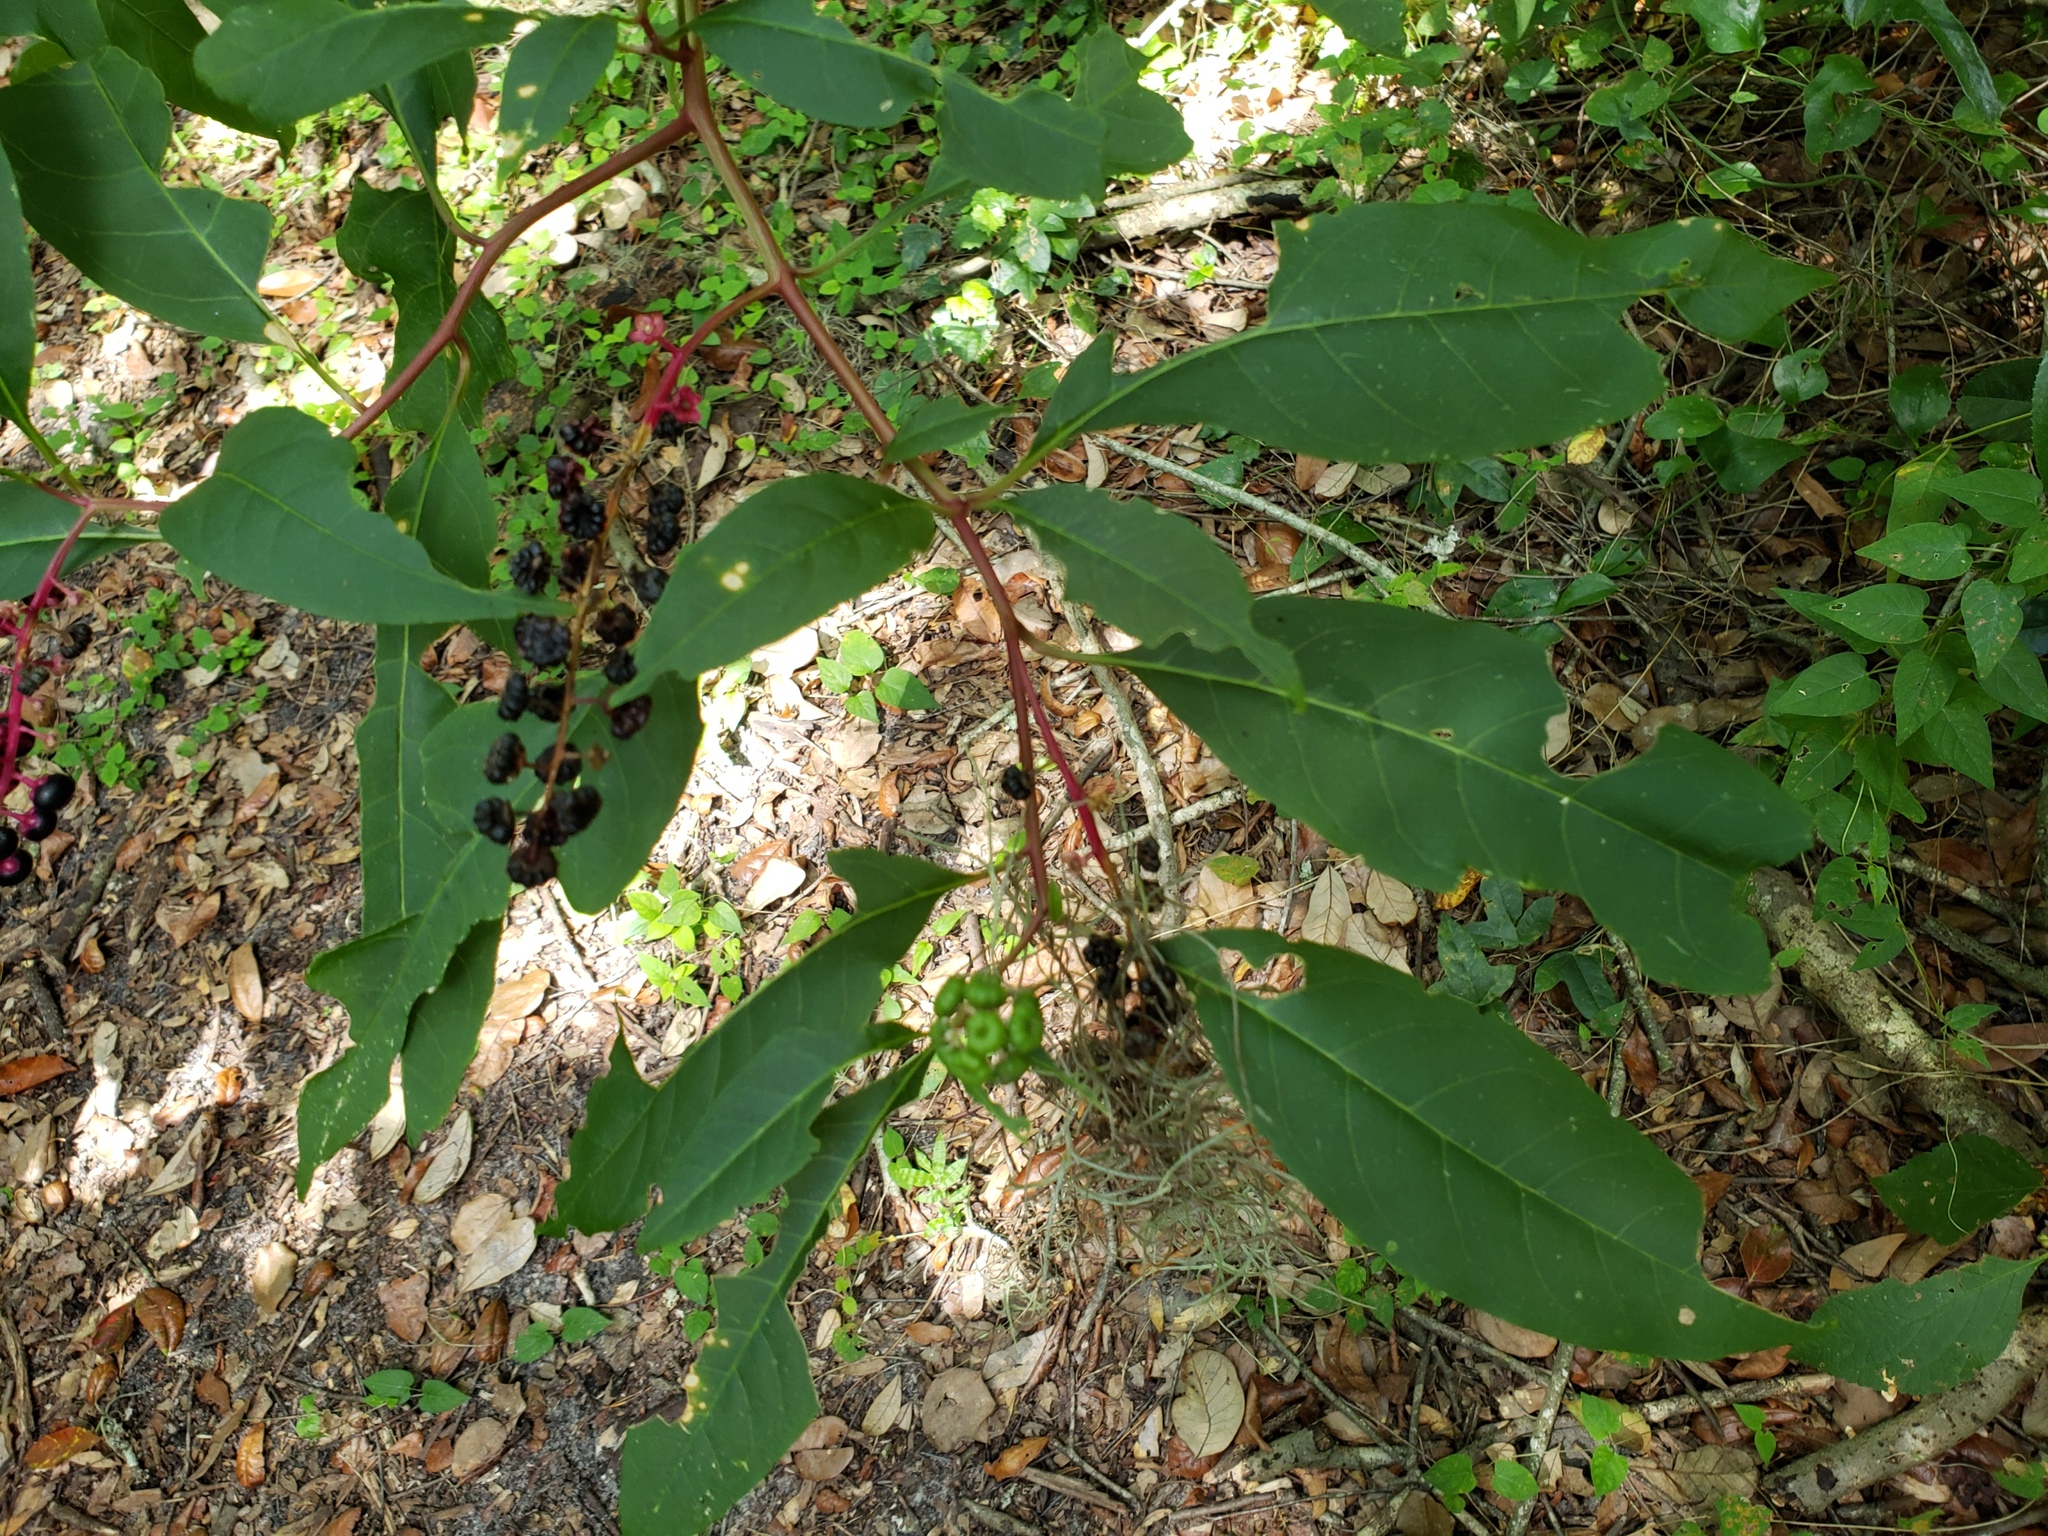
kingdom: Plantae
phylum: Tracheophyta
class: Magnoliopsida
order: Caryophyllales
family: Phytolaccaceae
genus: Phytolacca
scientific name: Phytolacca americana
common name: American pokeweed
